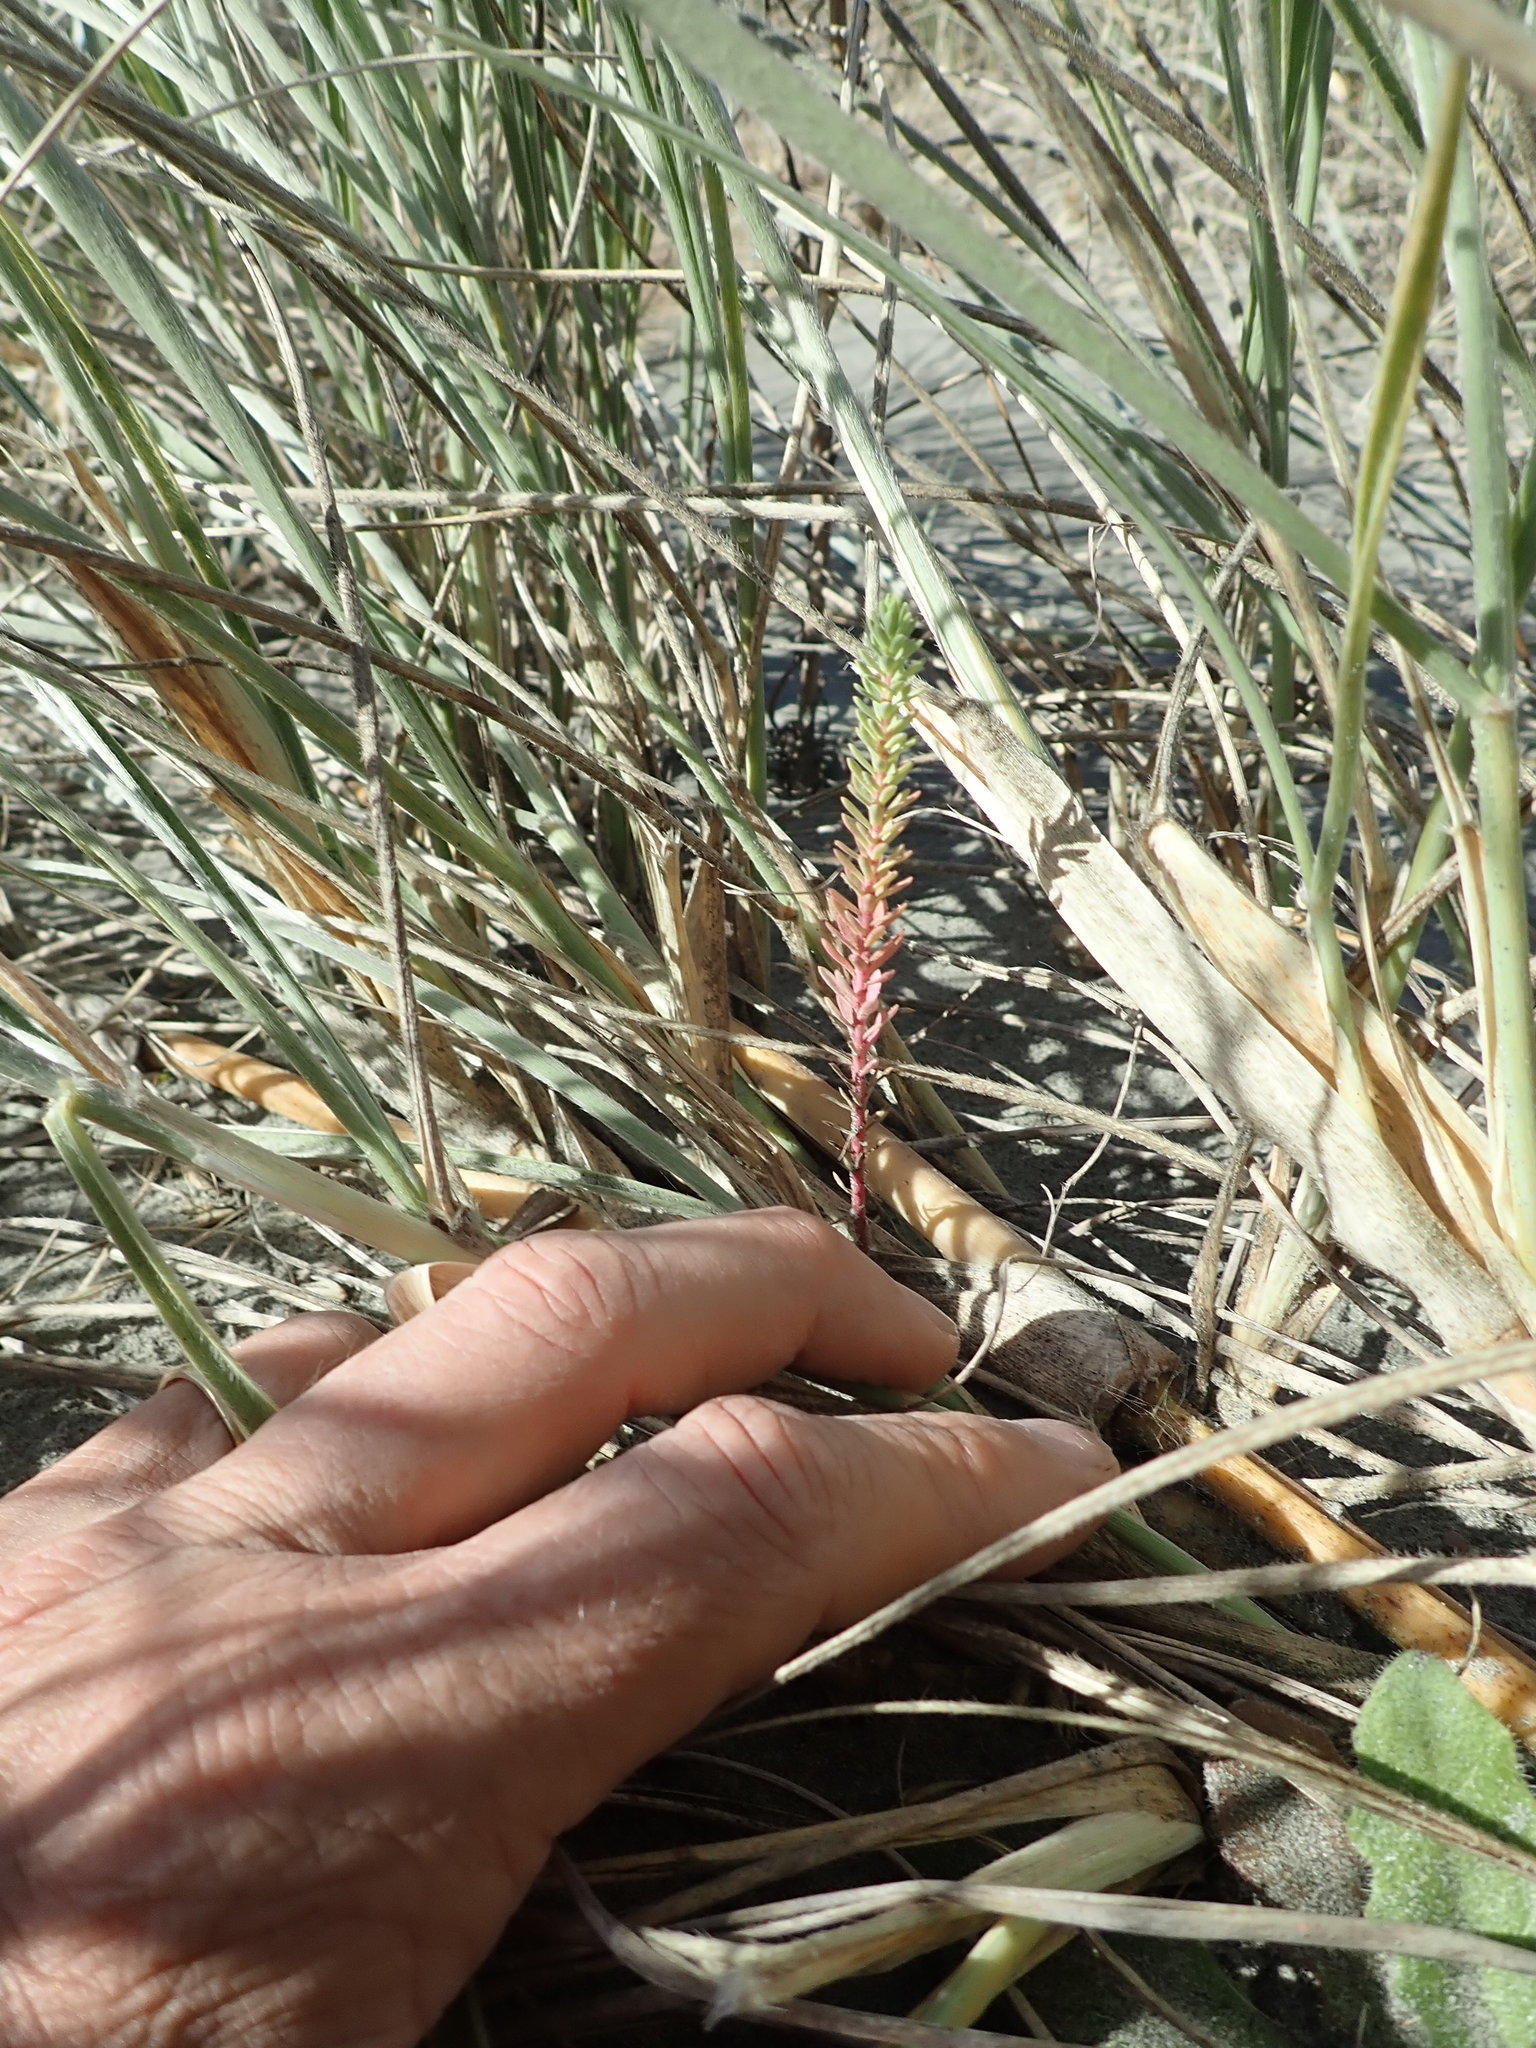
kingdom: Plantae
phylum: Tracheophyta
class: Magnoliopsida
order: Malpighiales
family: Euphorbiaceae
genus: Euphorbia
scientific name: Euphorbia paralias
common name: Sea spurge
